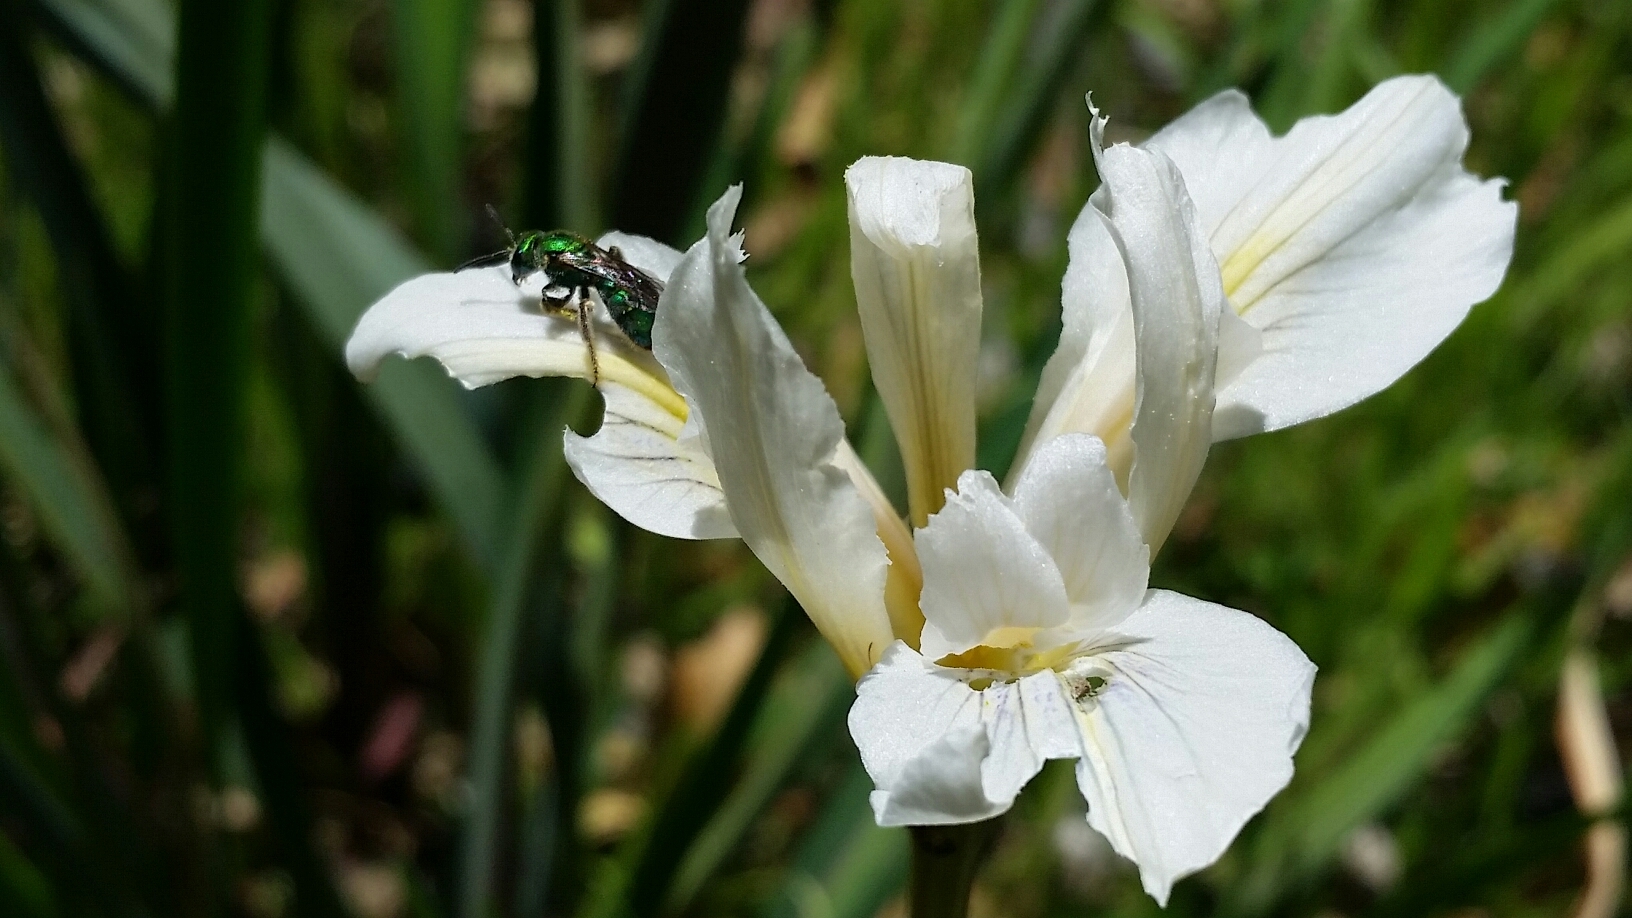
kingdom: Animalia
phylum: Arthropoda
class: Insecta
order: Hymenoptera
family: Halictidae
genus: Augochlorella
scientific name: Augochlorella pomoniella
